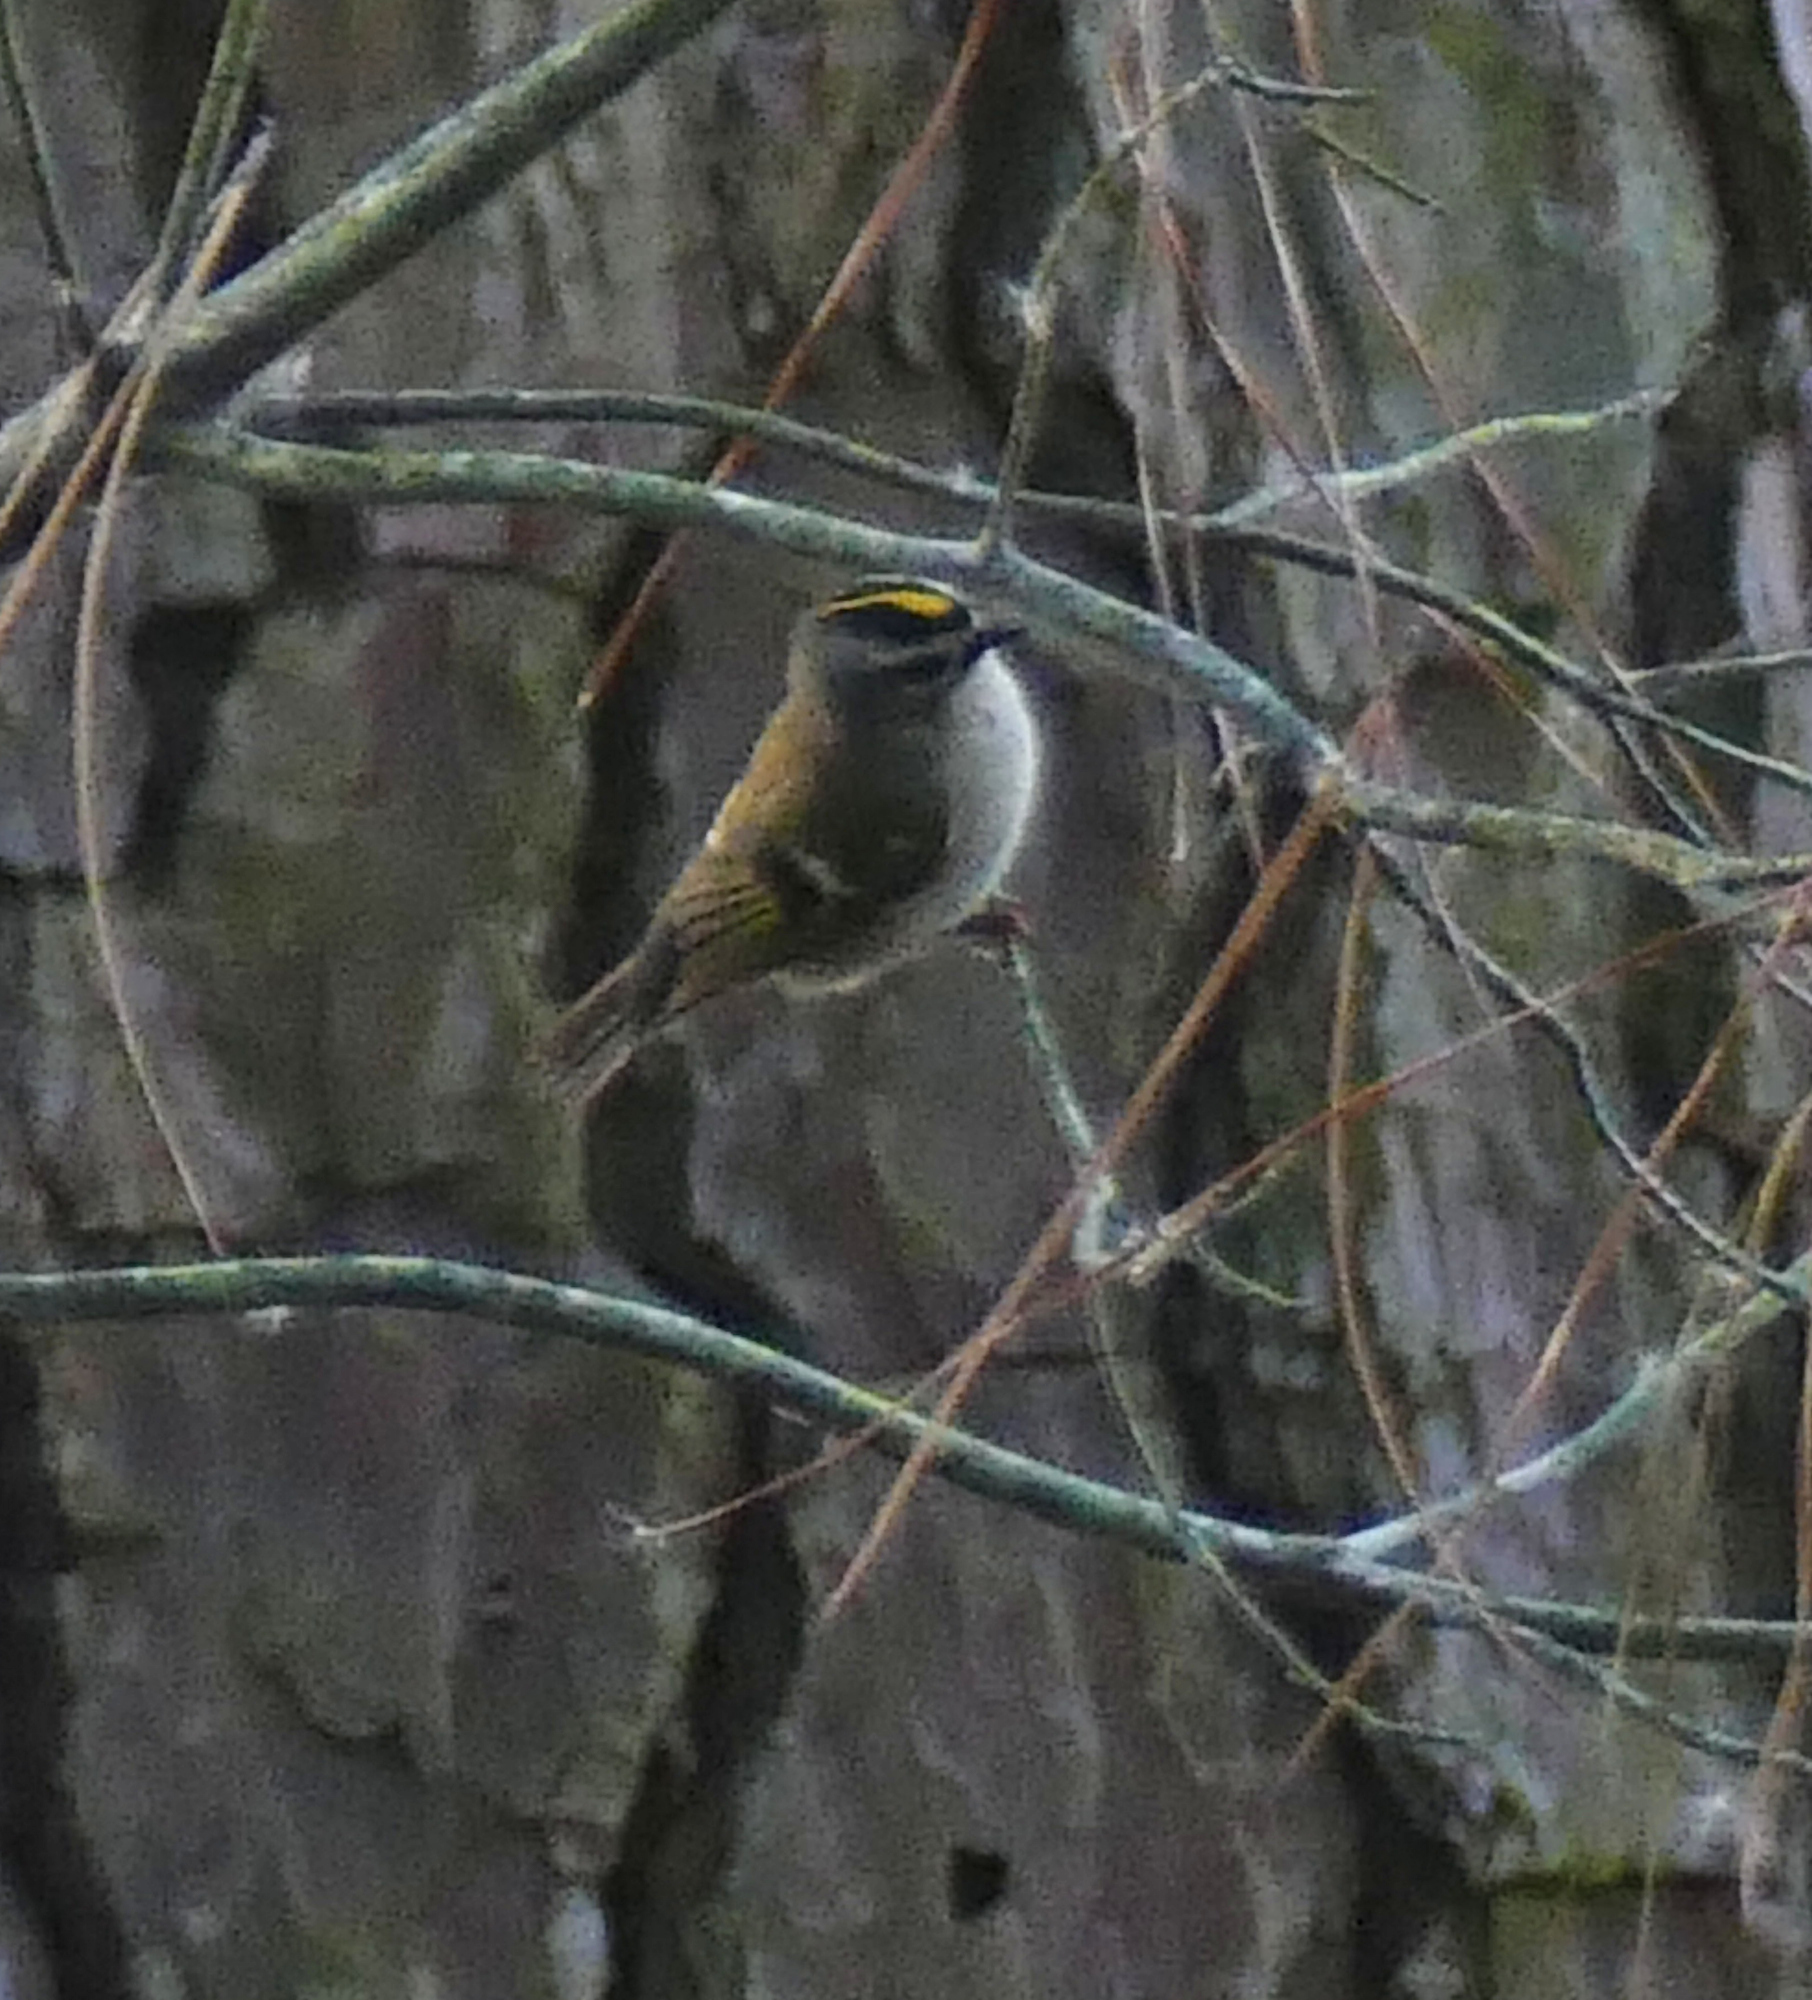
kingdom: Animalia
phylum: Chordata
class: Aves
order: Passeriformes
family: Regulidae
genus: Regulus
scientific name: Regulus satrapa
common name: Golden-crowned kinglet
